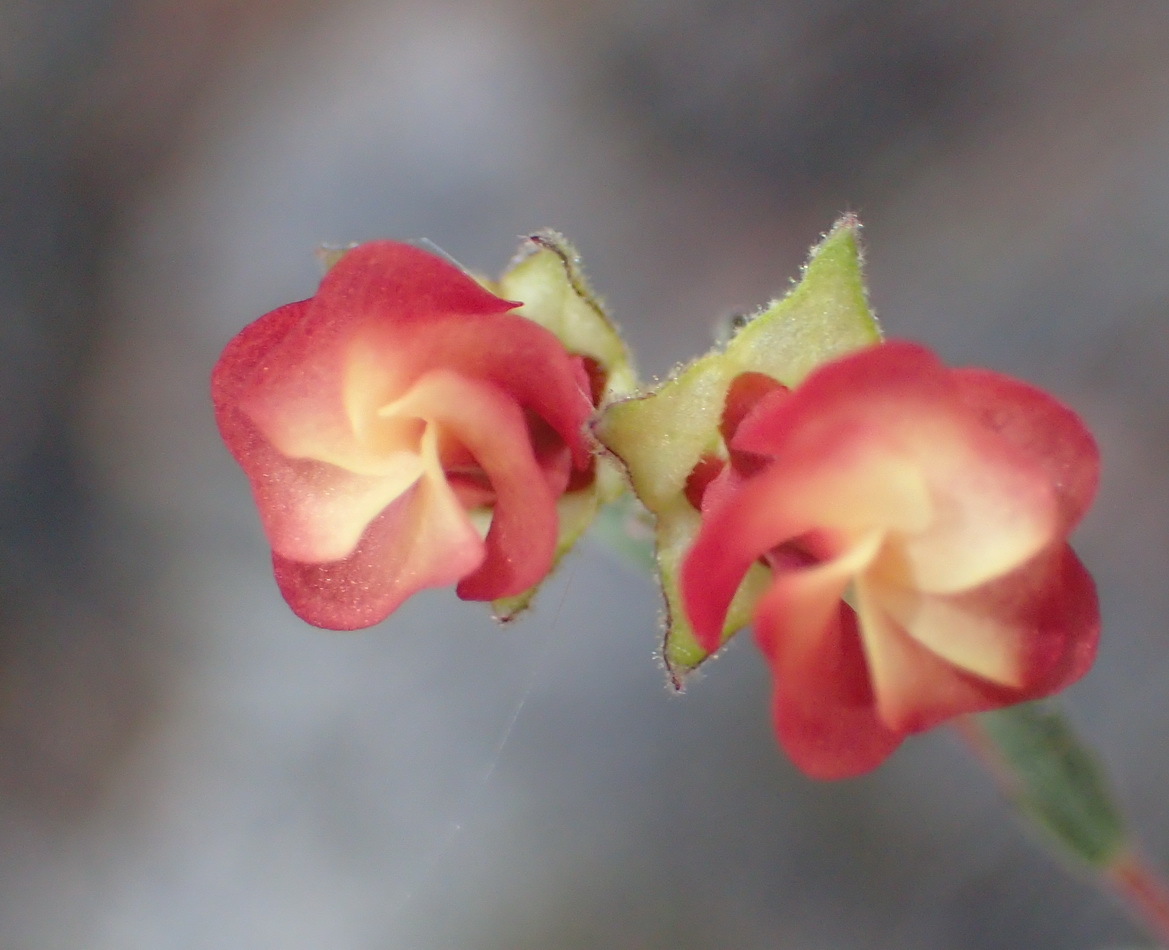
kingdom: Plantae
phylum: Tracheophyta
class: Magnoliopsida
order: Malvales
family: Malvaceae
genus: Hermannia
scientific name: Hermannia flammula
